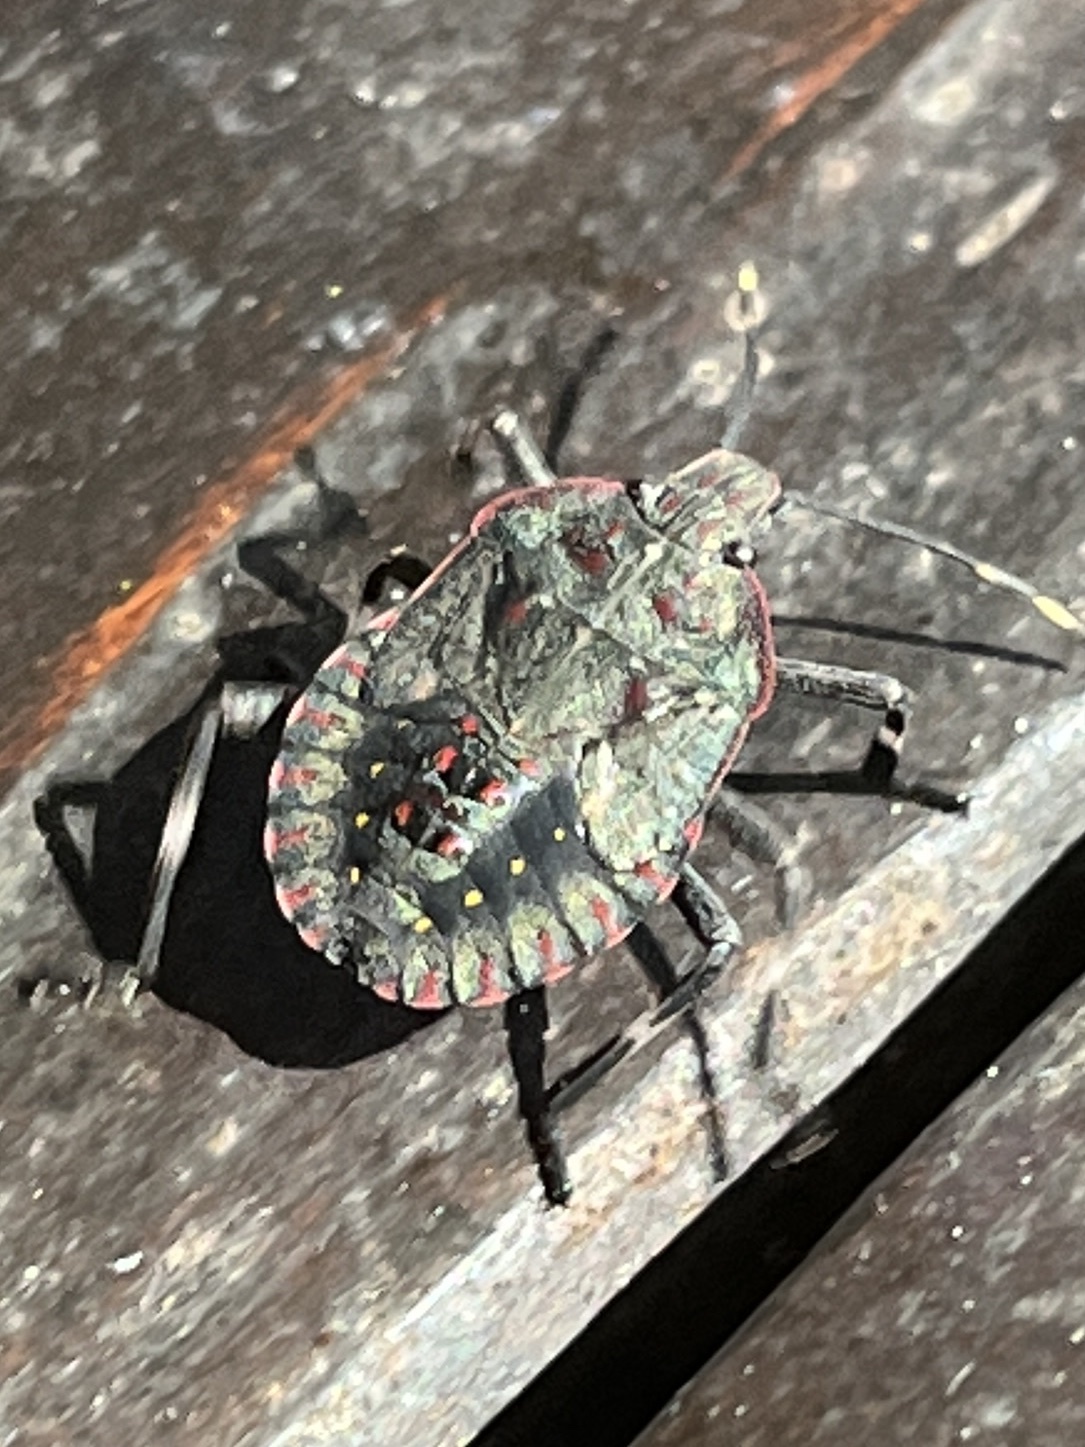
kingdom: Animalia
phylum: Arthropoda
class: Insecta
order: Hemiptera
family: Pentatomidae
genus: Coenomorpha
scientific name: Coenomorpha nervosa
